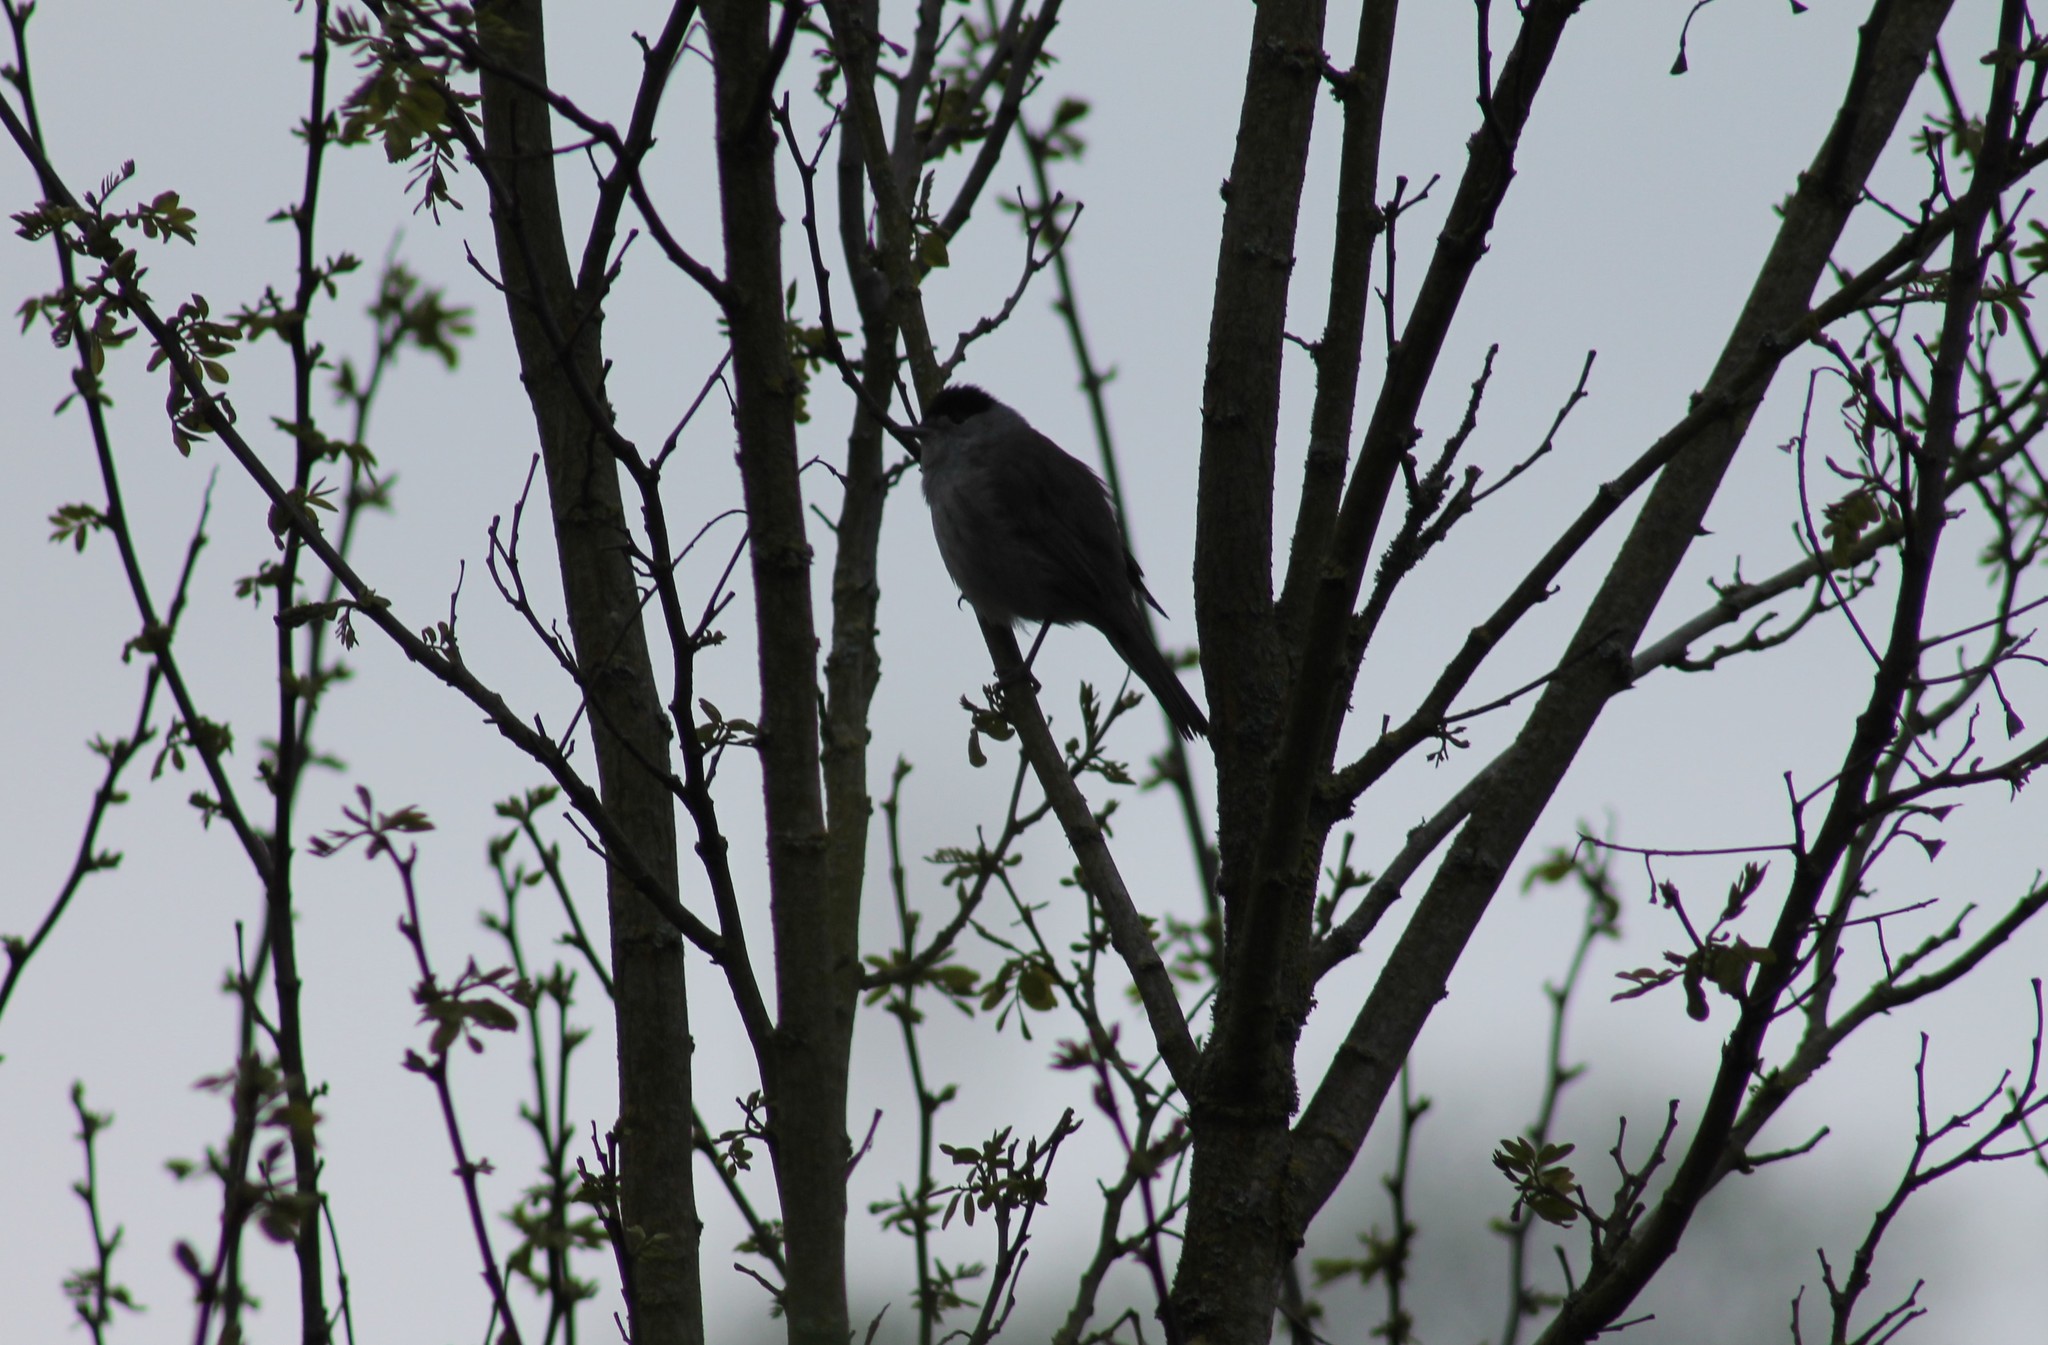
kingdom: Animalia
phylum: Chordata
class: Aves
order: Passeriformes
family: Sylviidae
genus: Sylvia
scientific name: Sylvia atricapilla
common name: Eurasian blackcap
